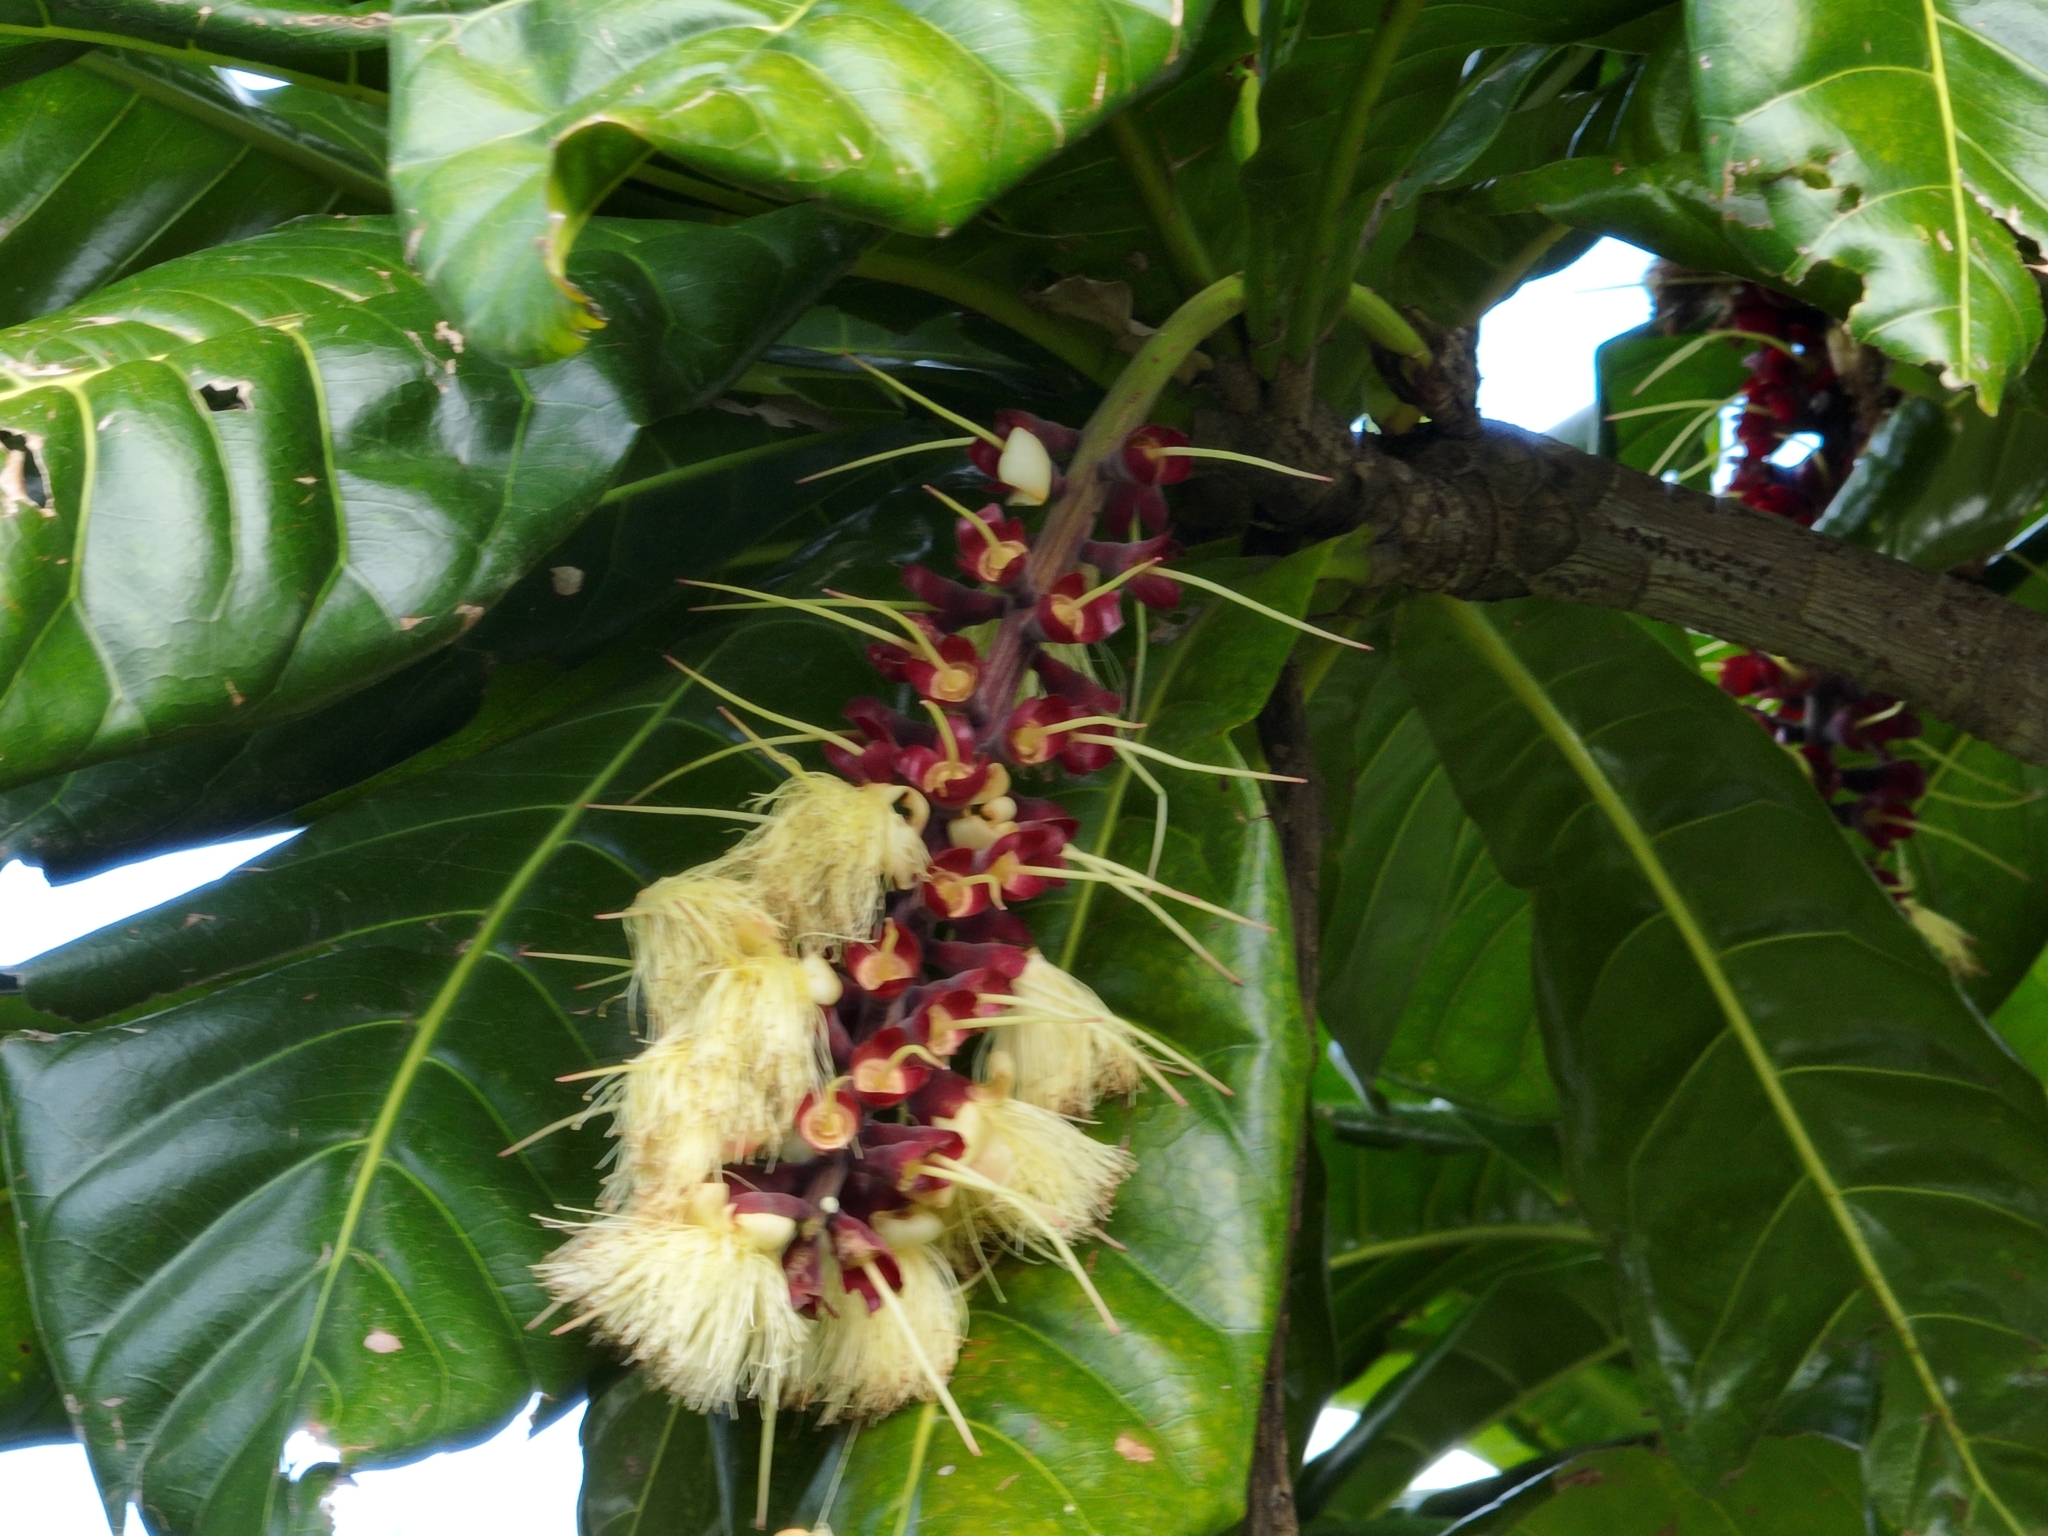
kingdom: Plantae
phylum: Tracheophyta
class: Magnoliopsida
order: Ericales
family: Lecythidaceae
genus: Barringtonia
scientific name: Barringtonia edulis
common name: Cutnut
